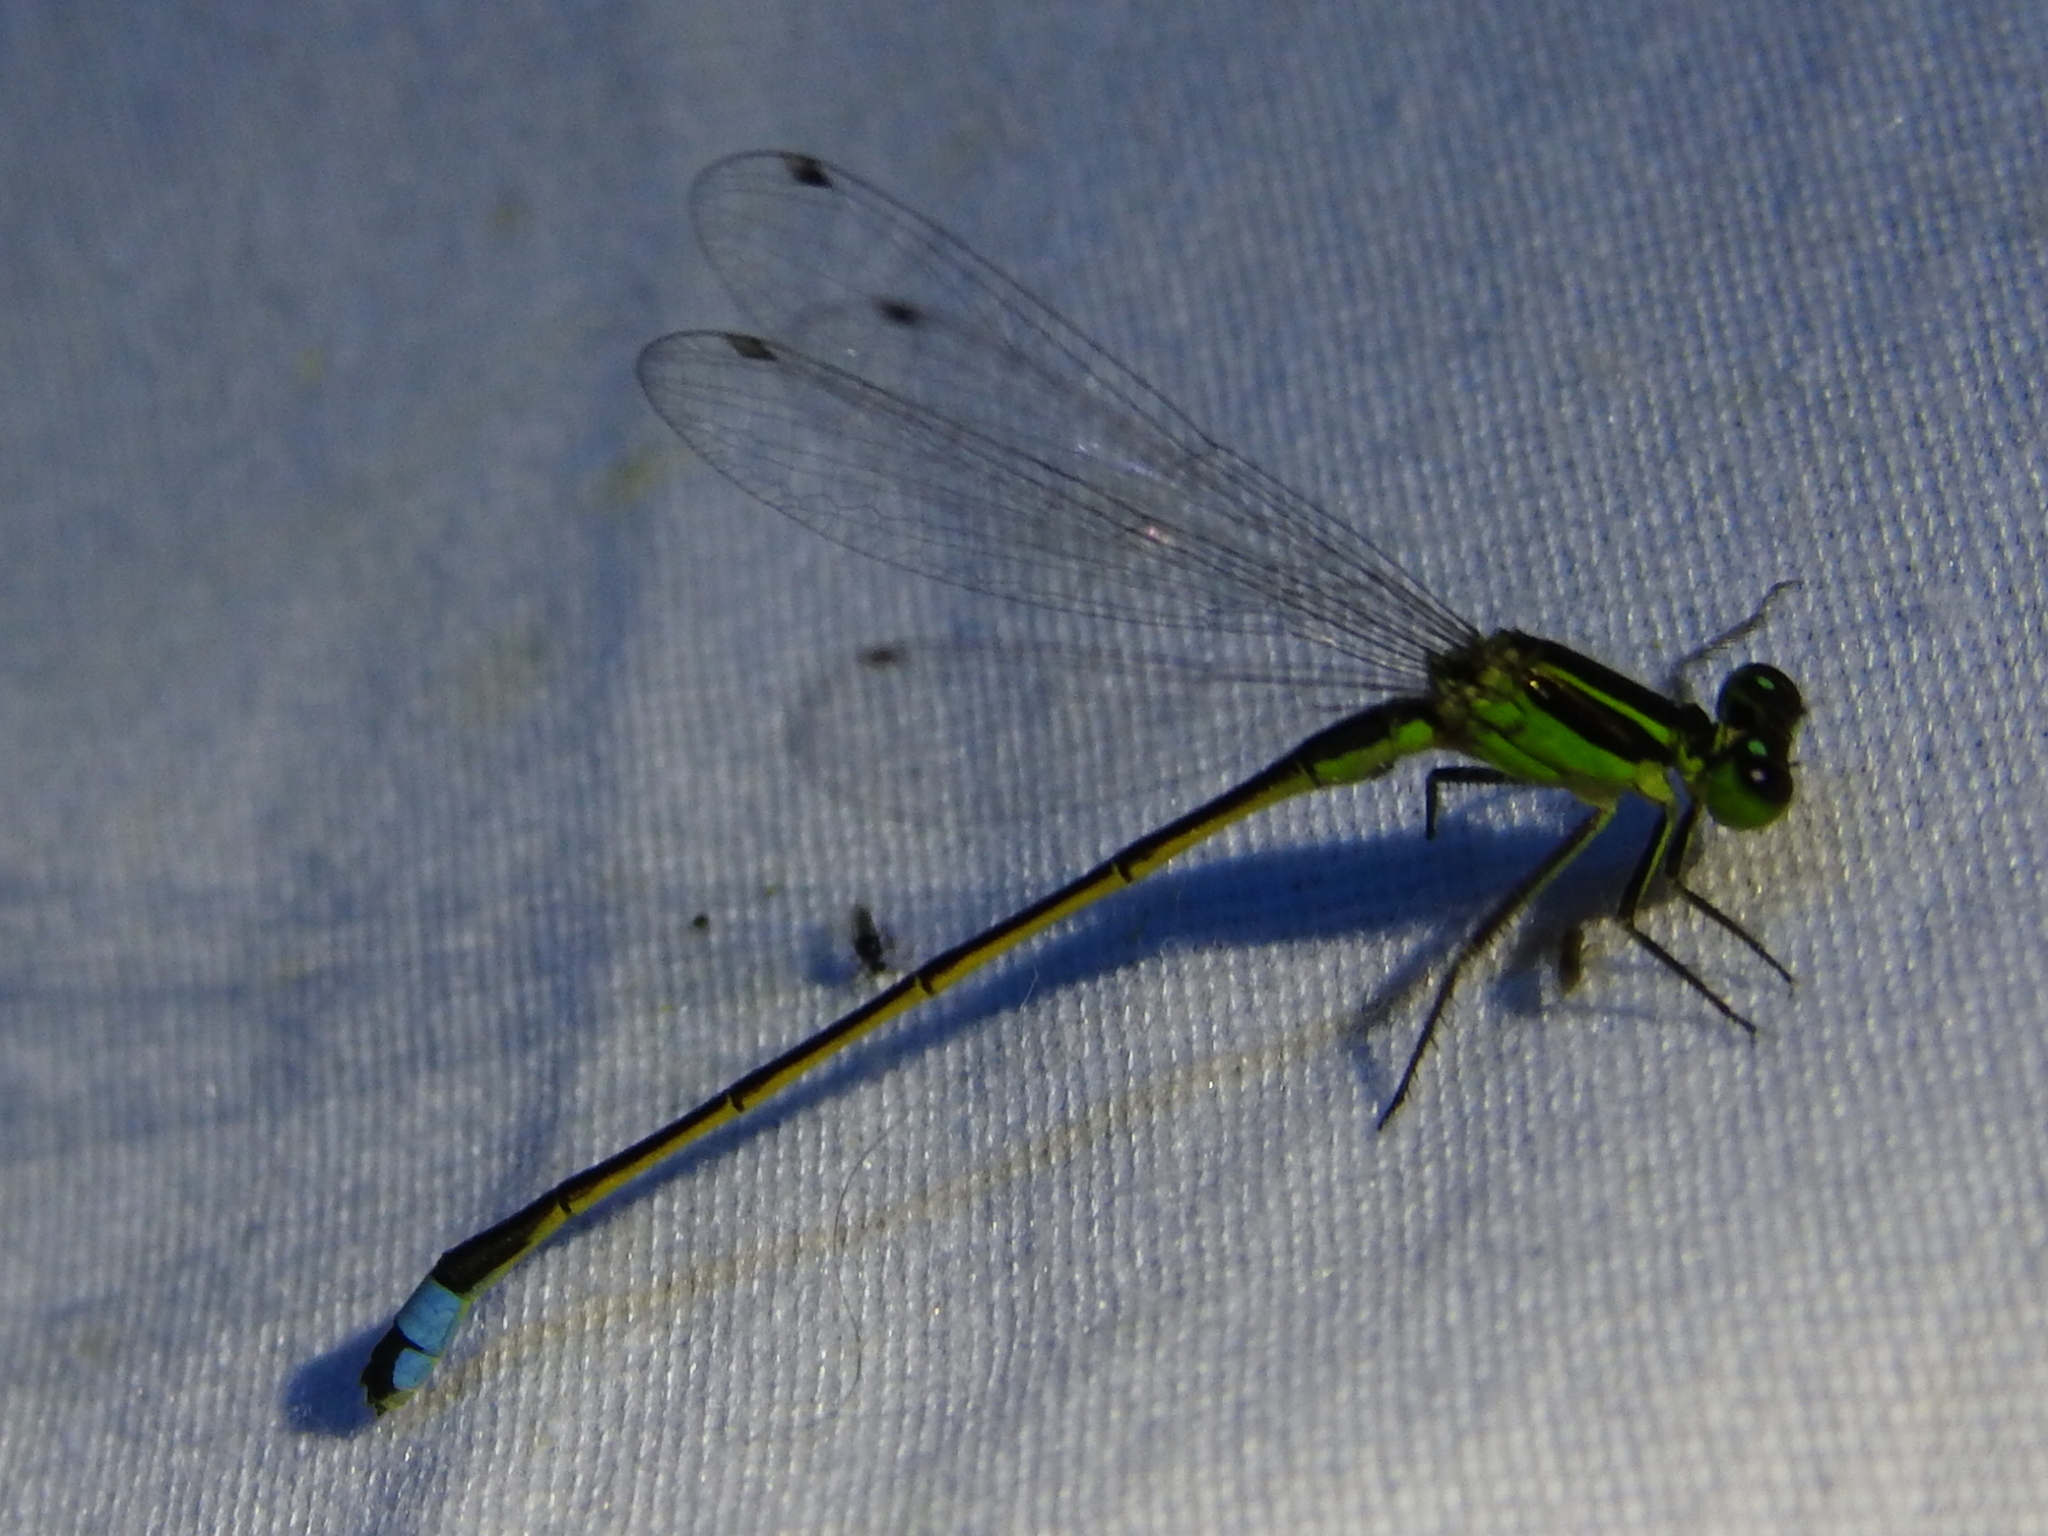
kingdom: Animalia
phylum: Arthropoda
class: Insecta
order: Odonata
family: Coenagrionidae
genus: Ischnura
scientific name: Ischnura ramburii
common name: Rambur's forktail
